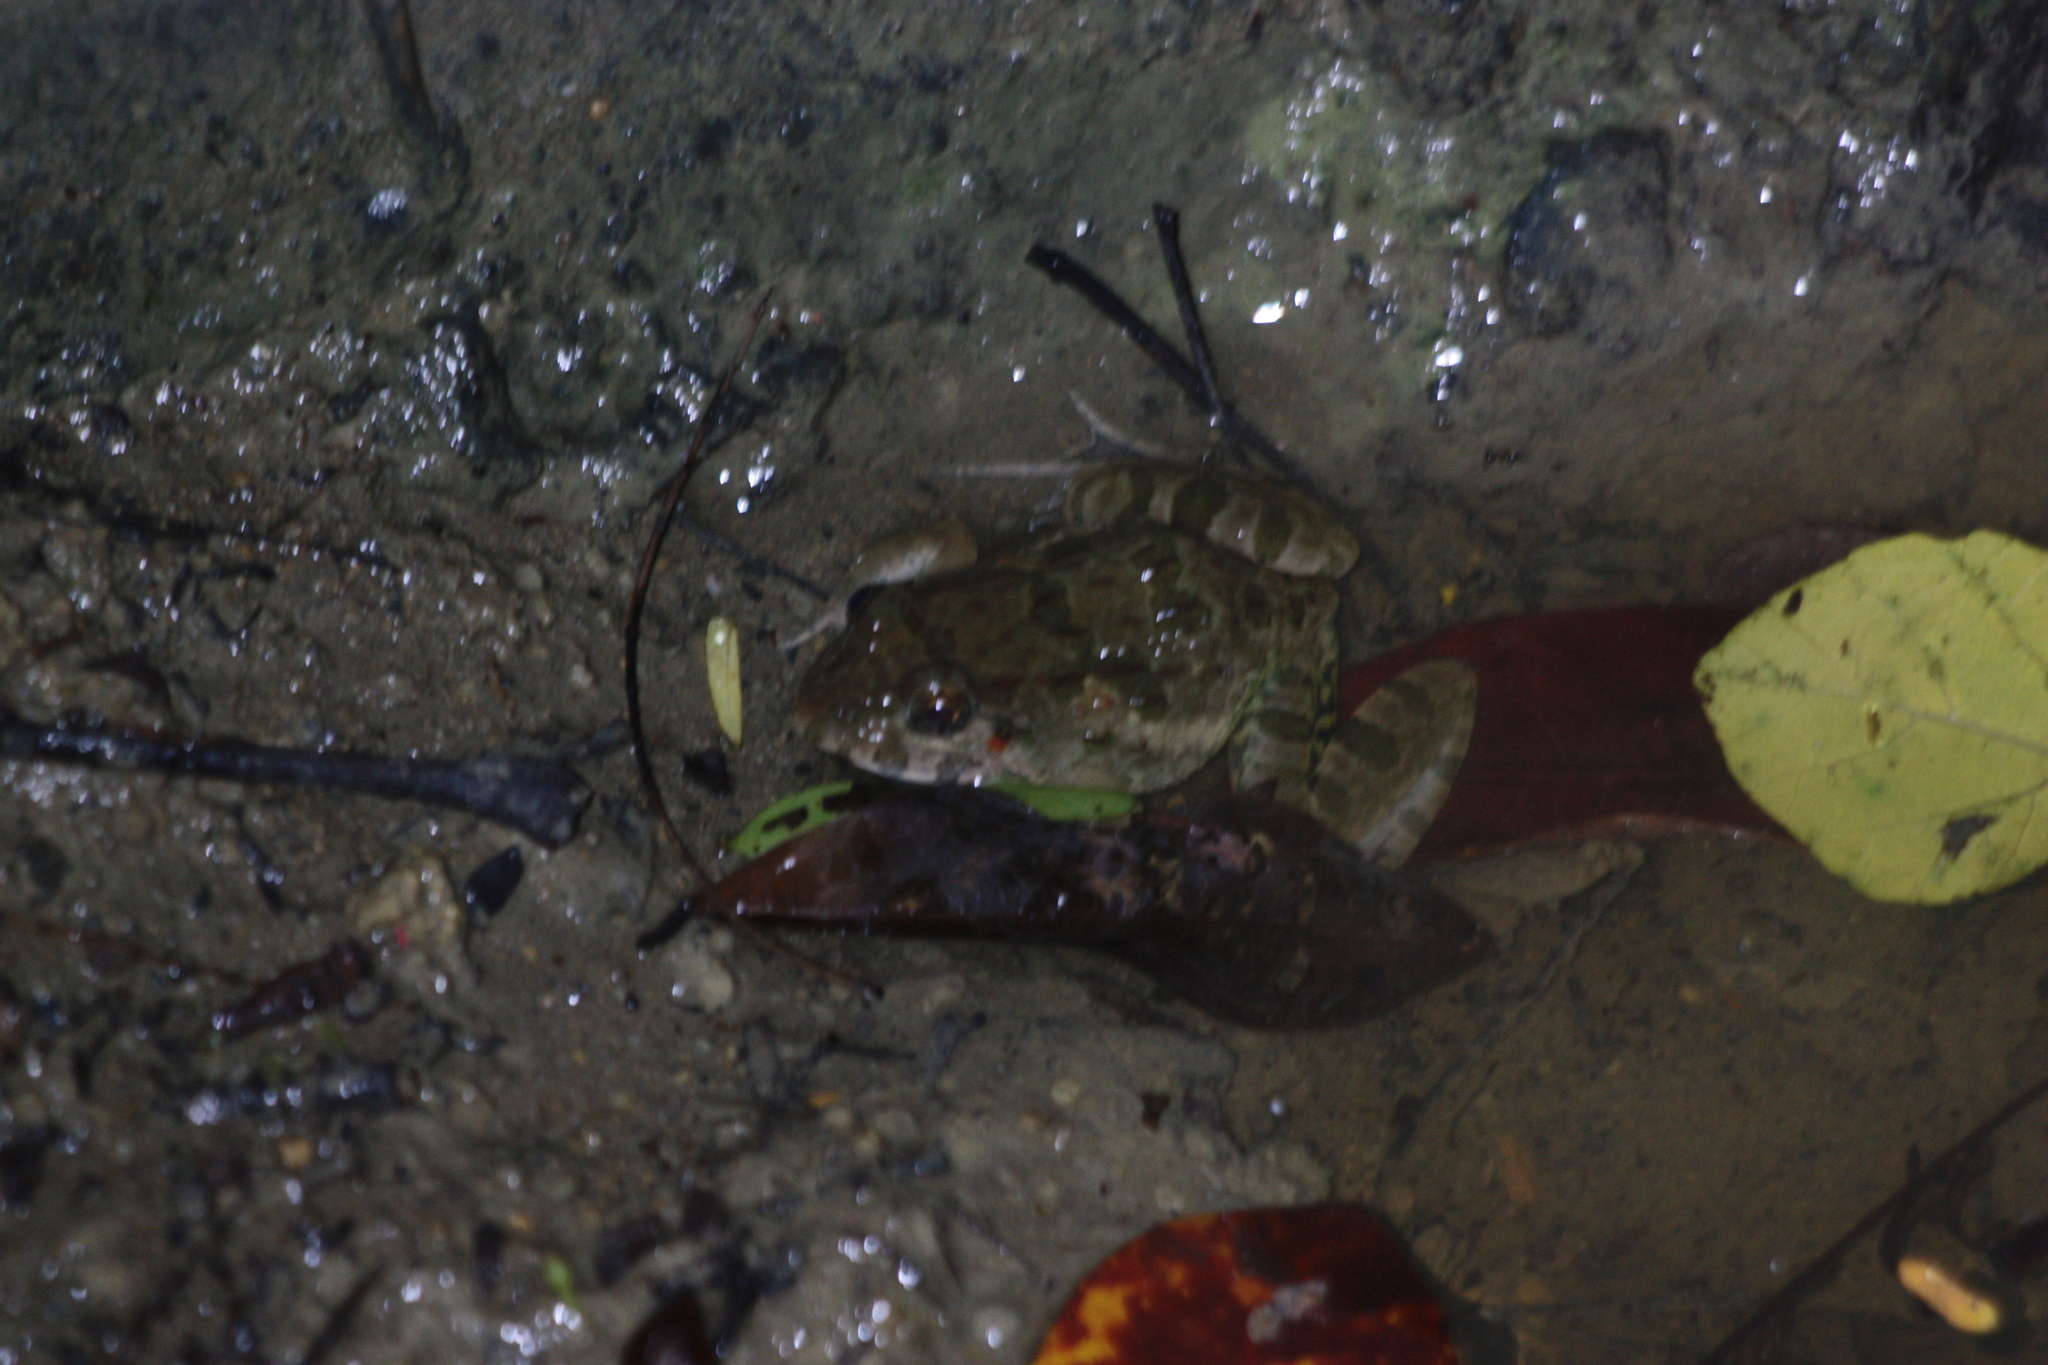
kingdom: Animalia
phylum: Chordata
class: Amphibia
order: Anura
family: Dicroglossidae
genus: Fejervarya
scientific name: Fejervarya limnocharis
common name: Asian grass frog/common pond frog/field frog/grass frog/indian rice frog
